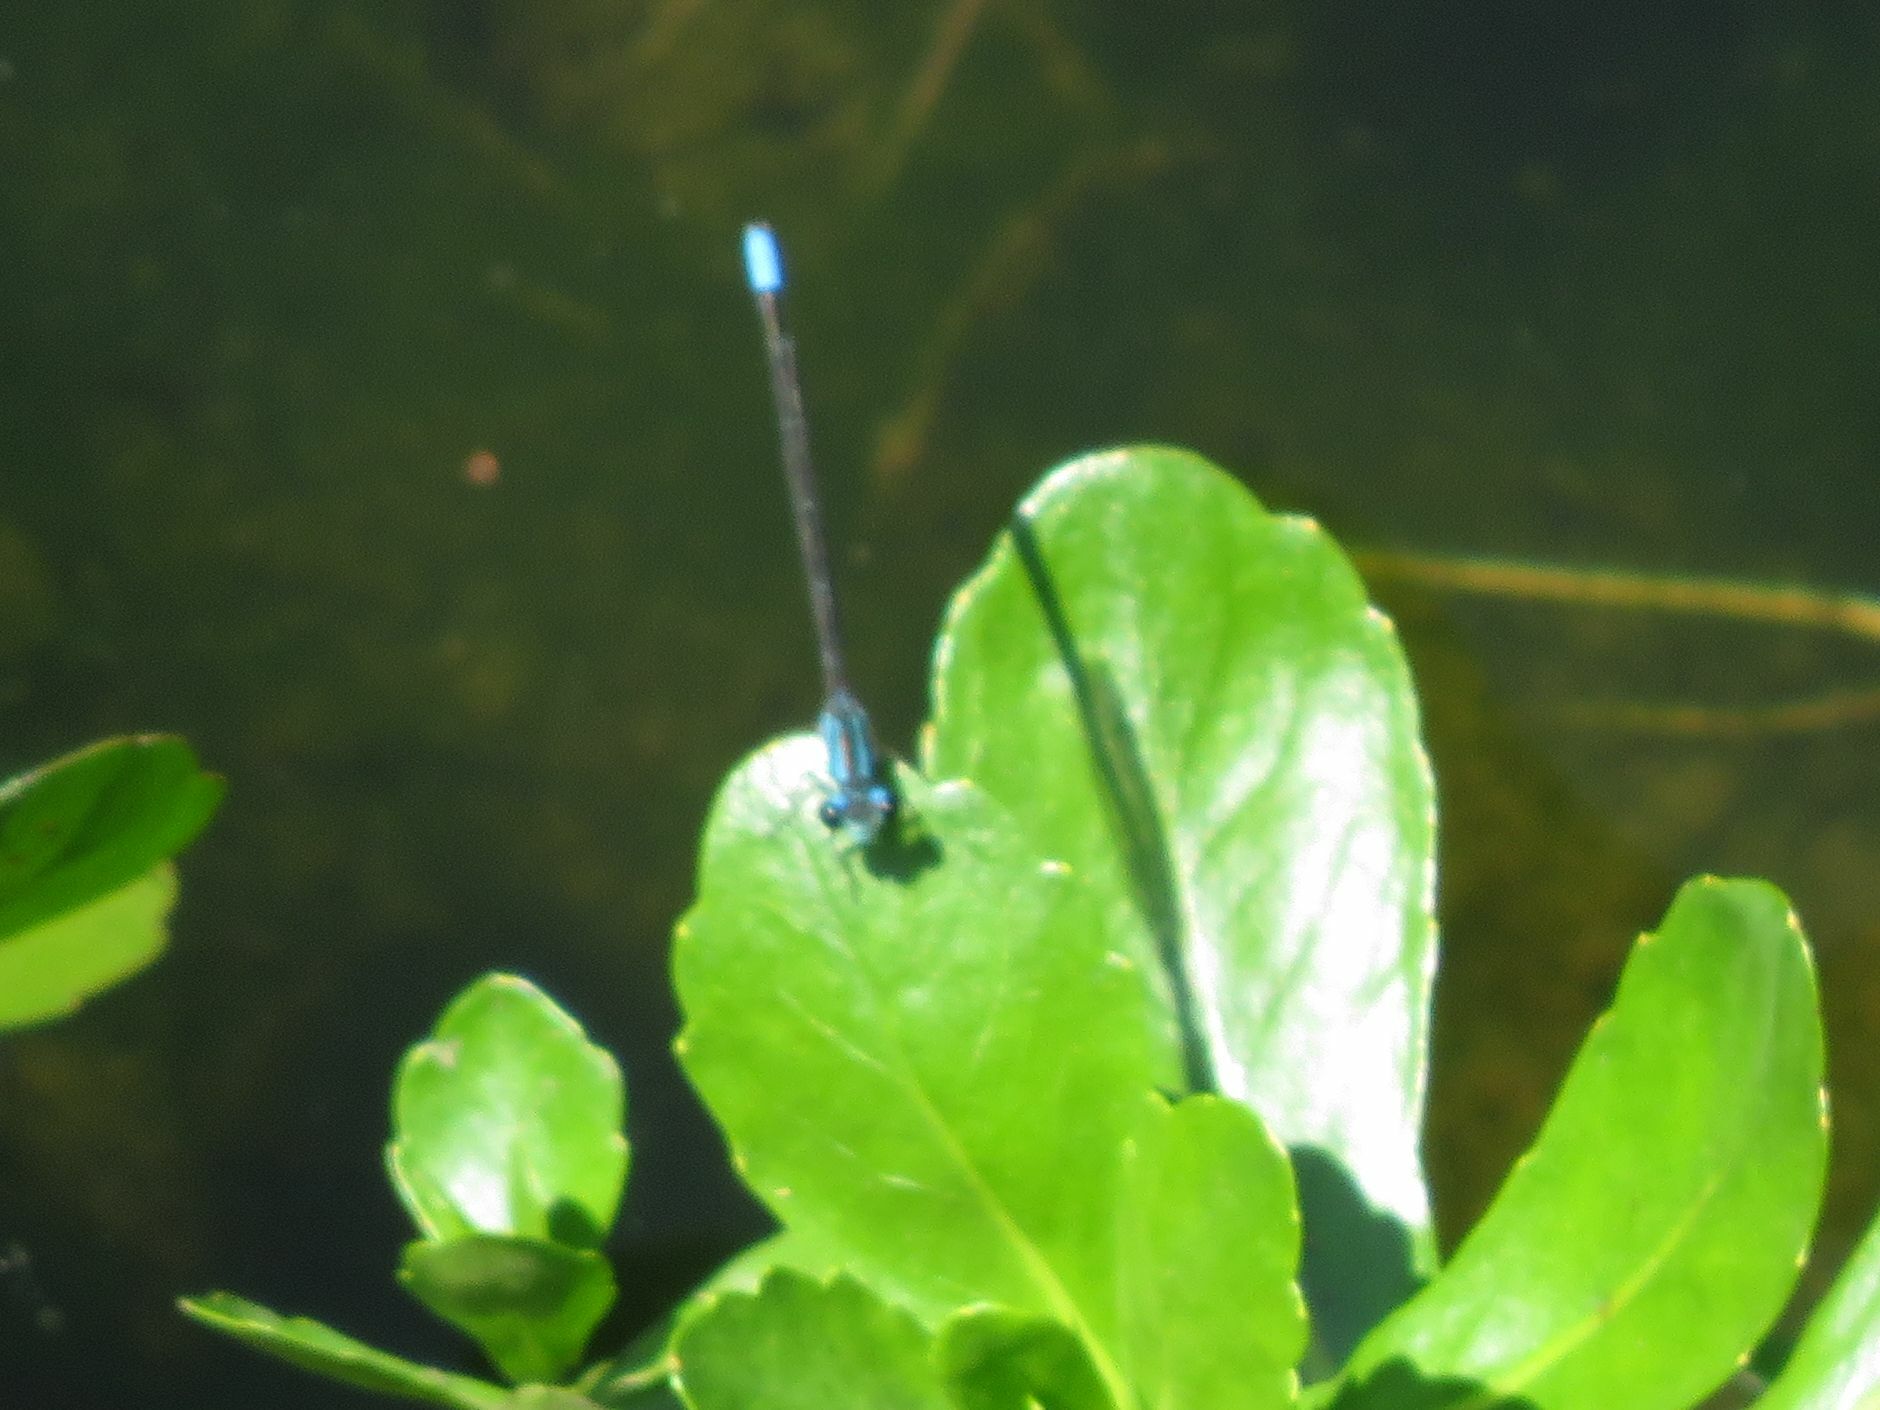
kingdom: Animalia
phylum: Arthropoda
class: Insecta
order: Odonata
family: Coenagrionidae
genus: Acanthagrion
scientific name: Acanthagrion lancea
